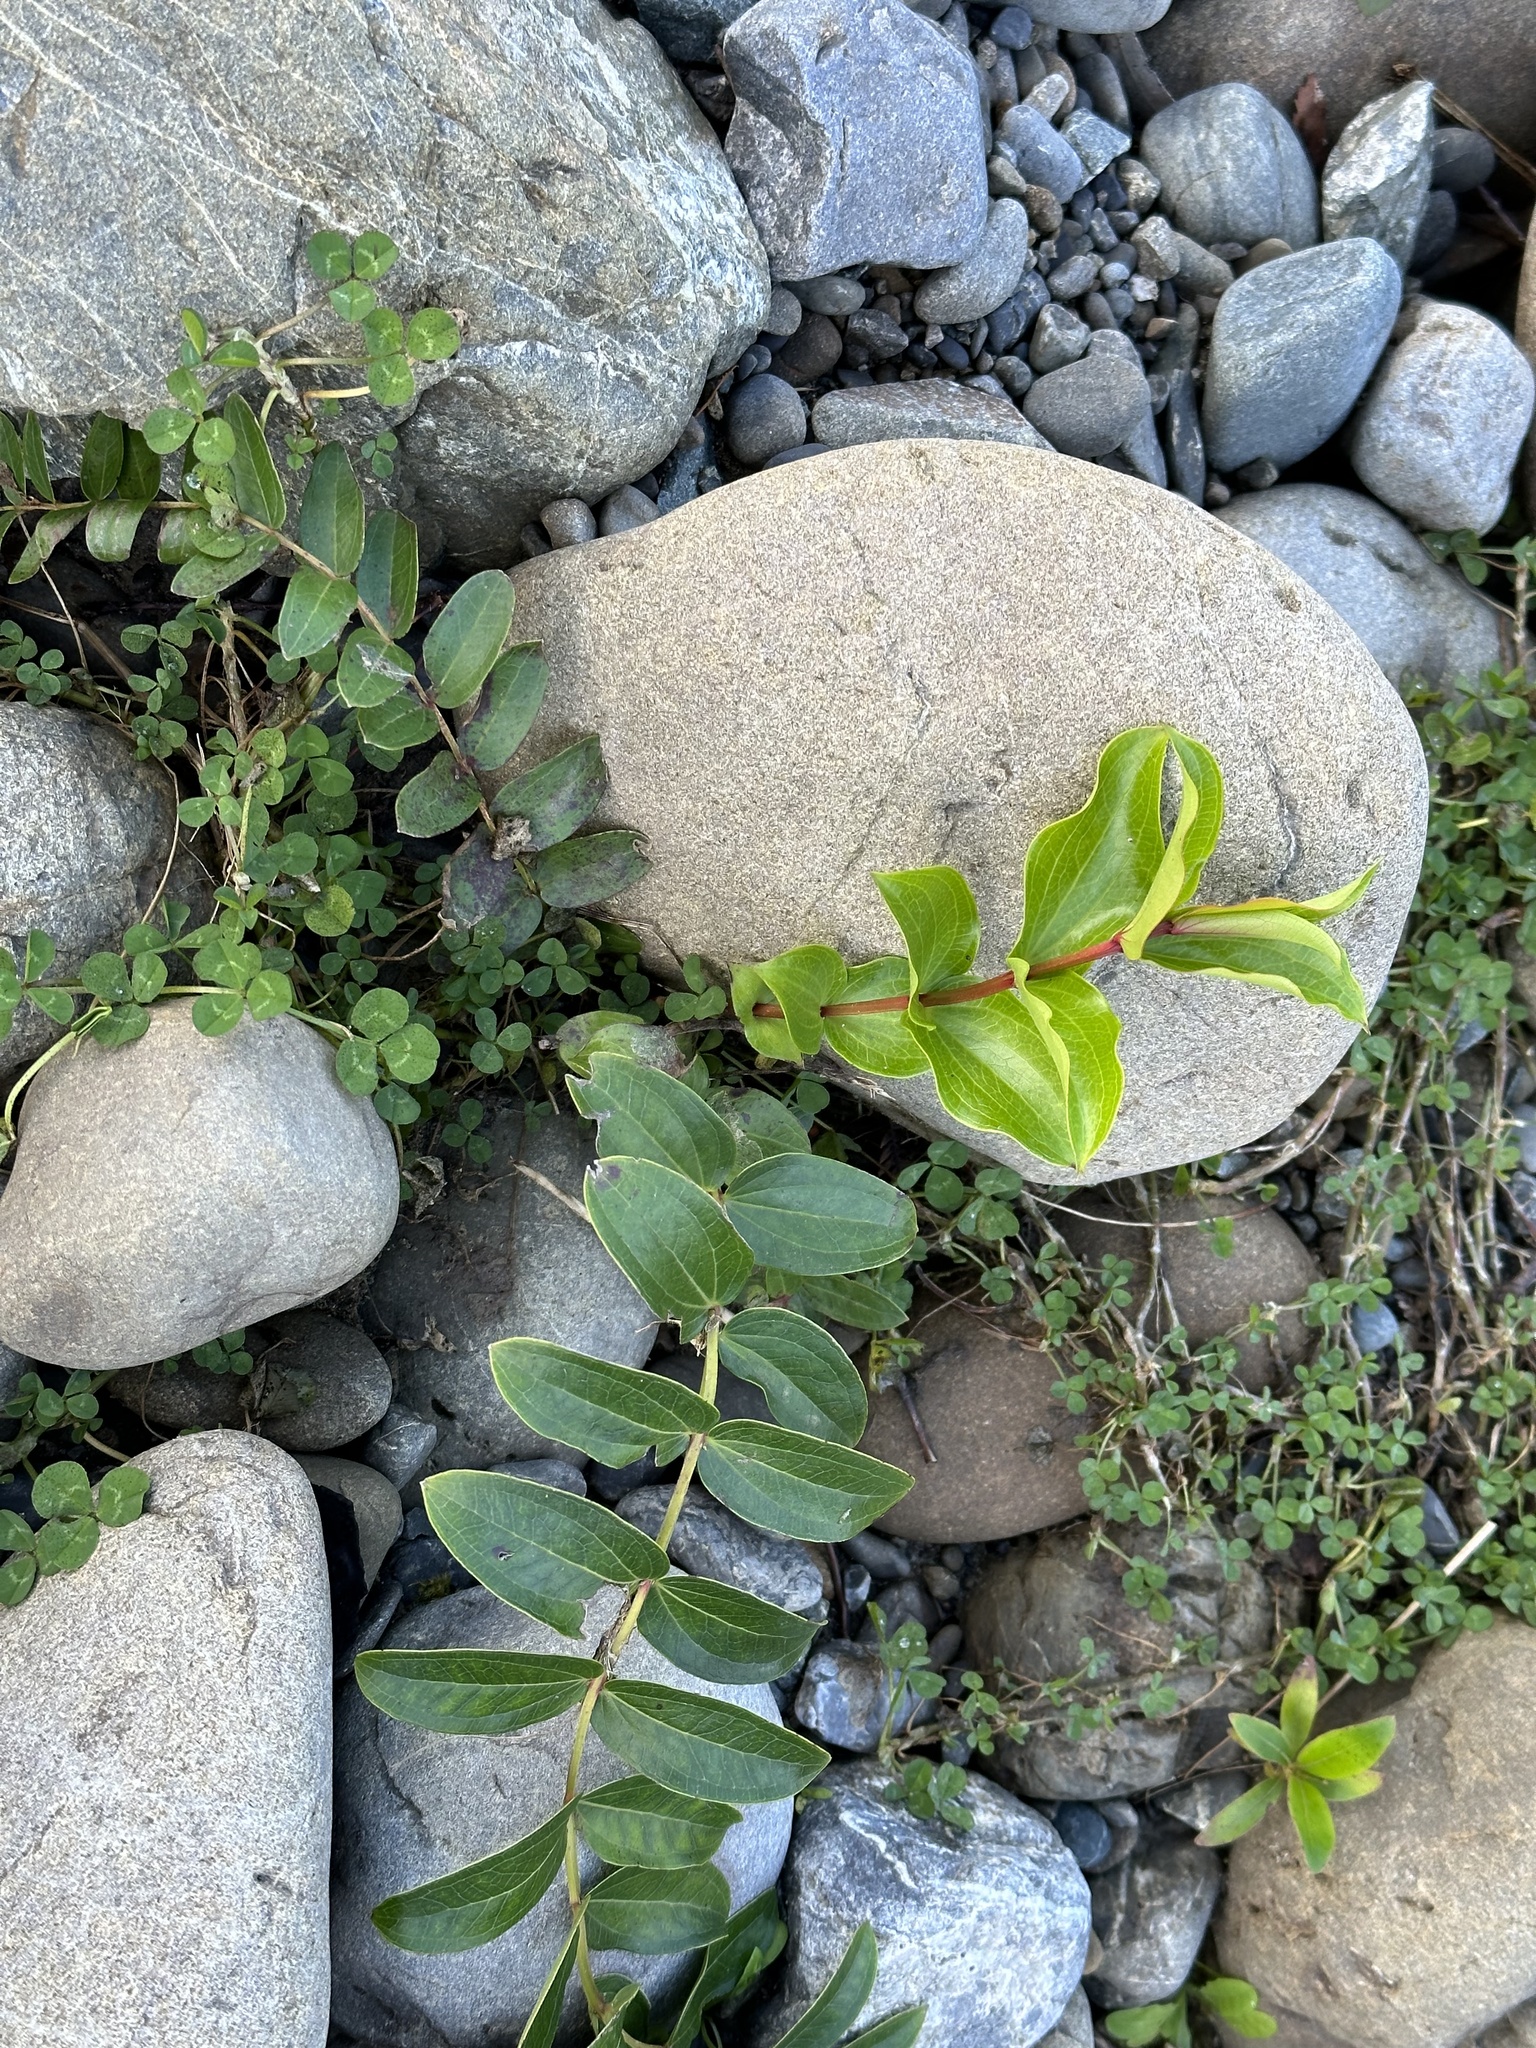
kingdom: Plantae
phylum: Tracheophyta
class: Magnoliopsida
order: Cucurbitales
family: Coriariaceae
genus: Coriaria
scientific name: Coriaria arborea
